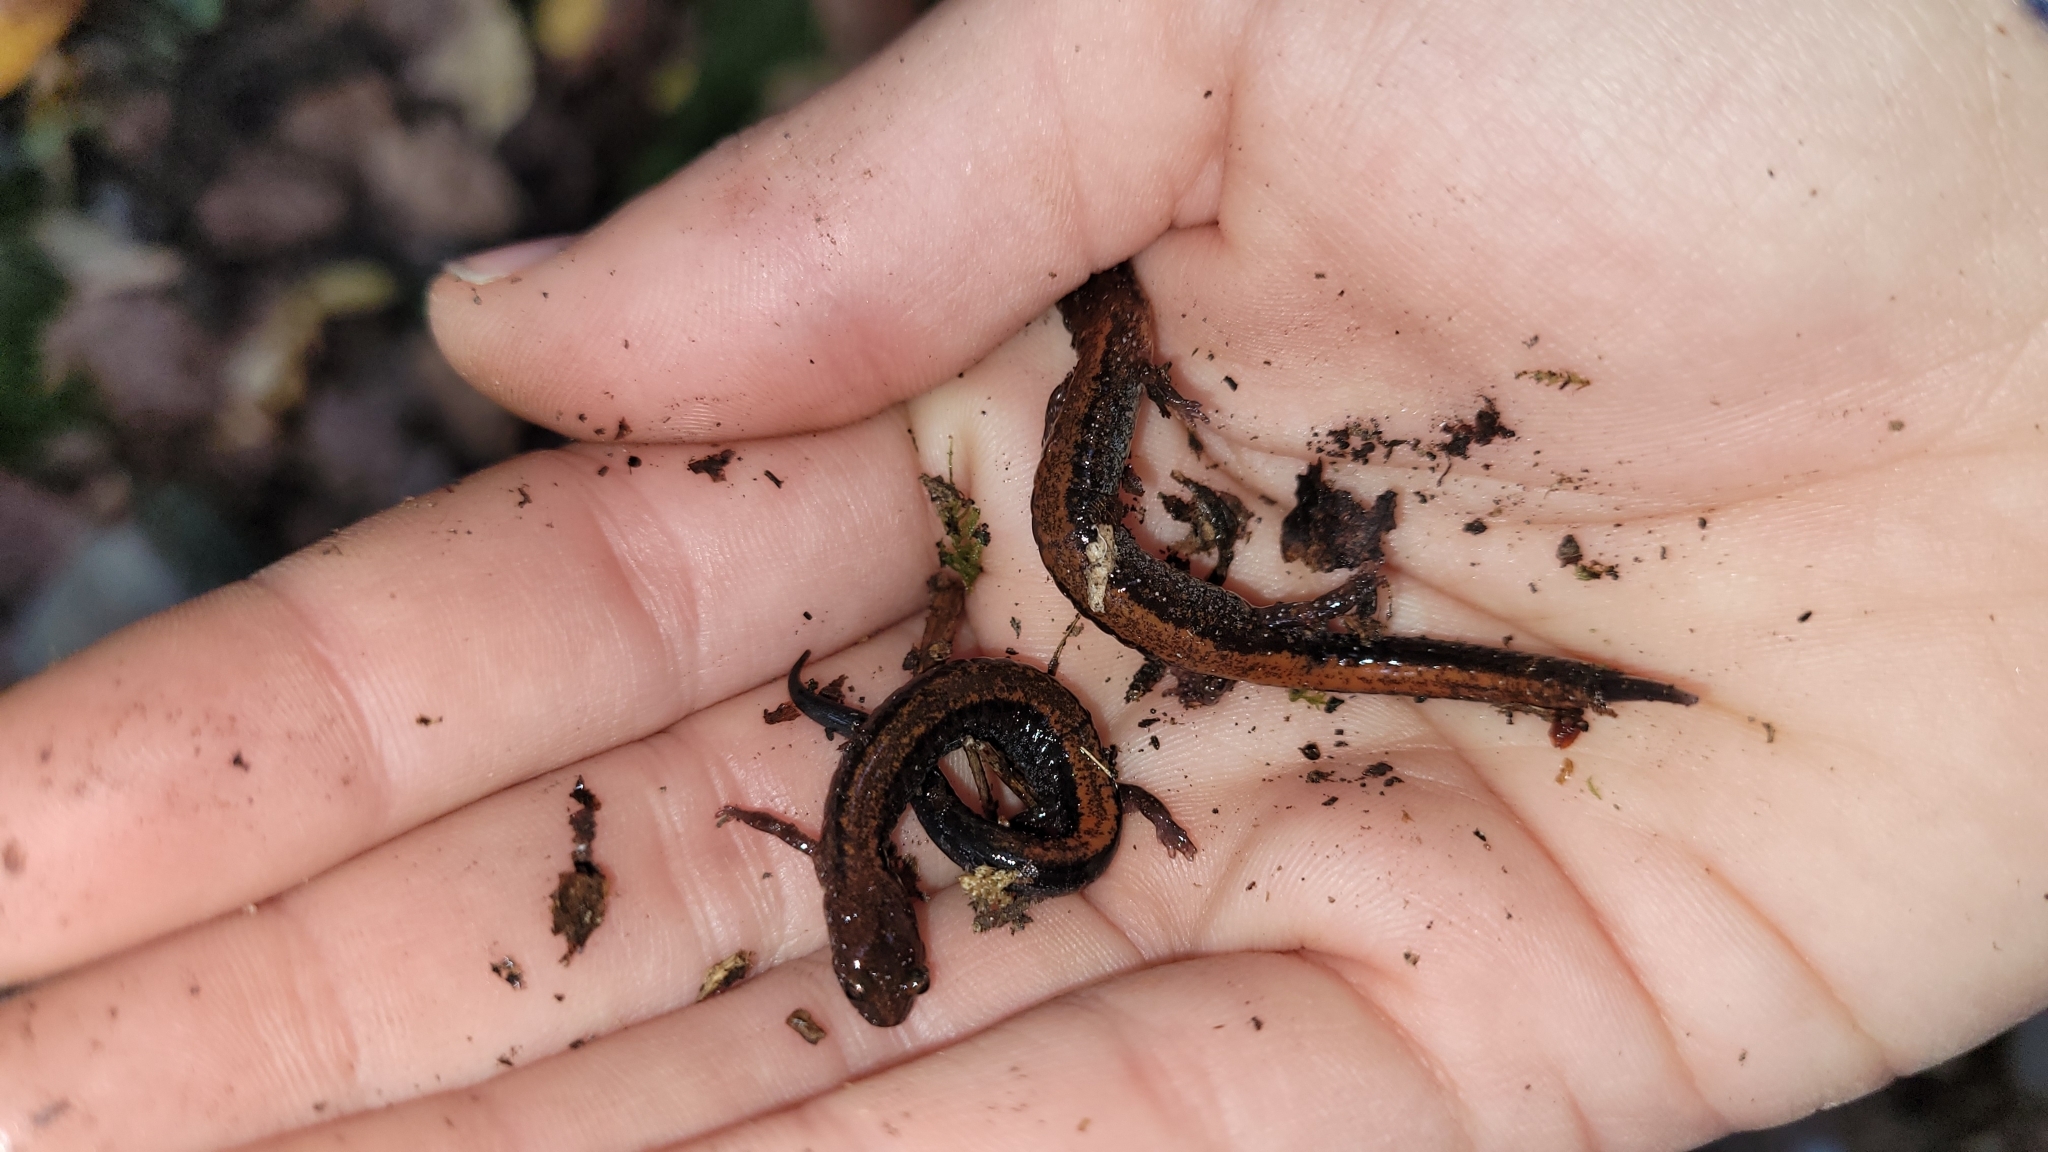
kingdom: Animalia
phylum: Chordata
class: Amphibia
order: Caudata
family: Plethodontidae
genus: Plethodon
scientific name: Plethodon cinereus
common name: Redback salamander
